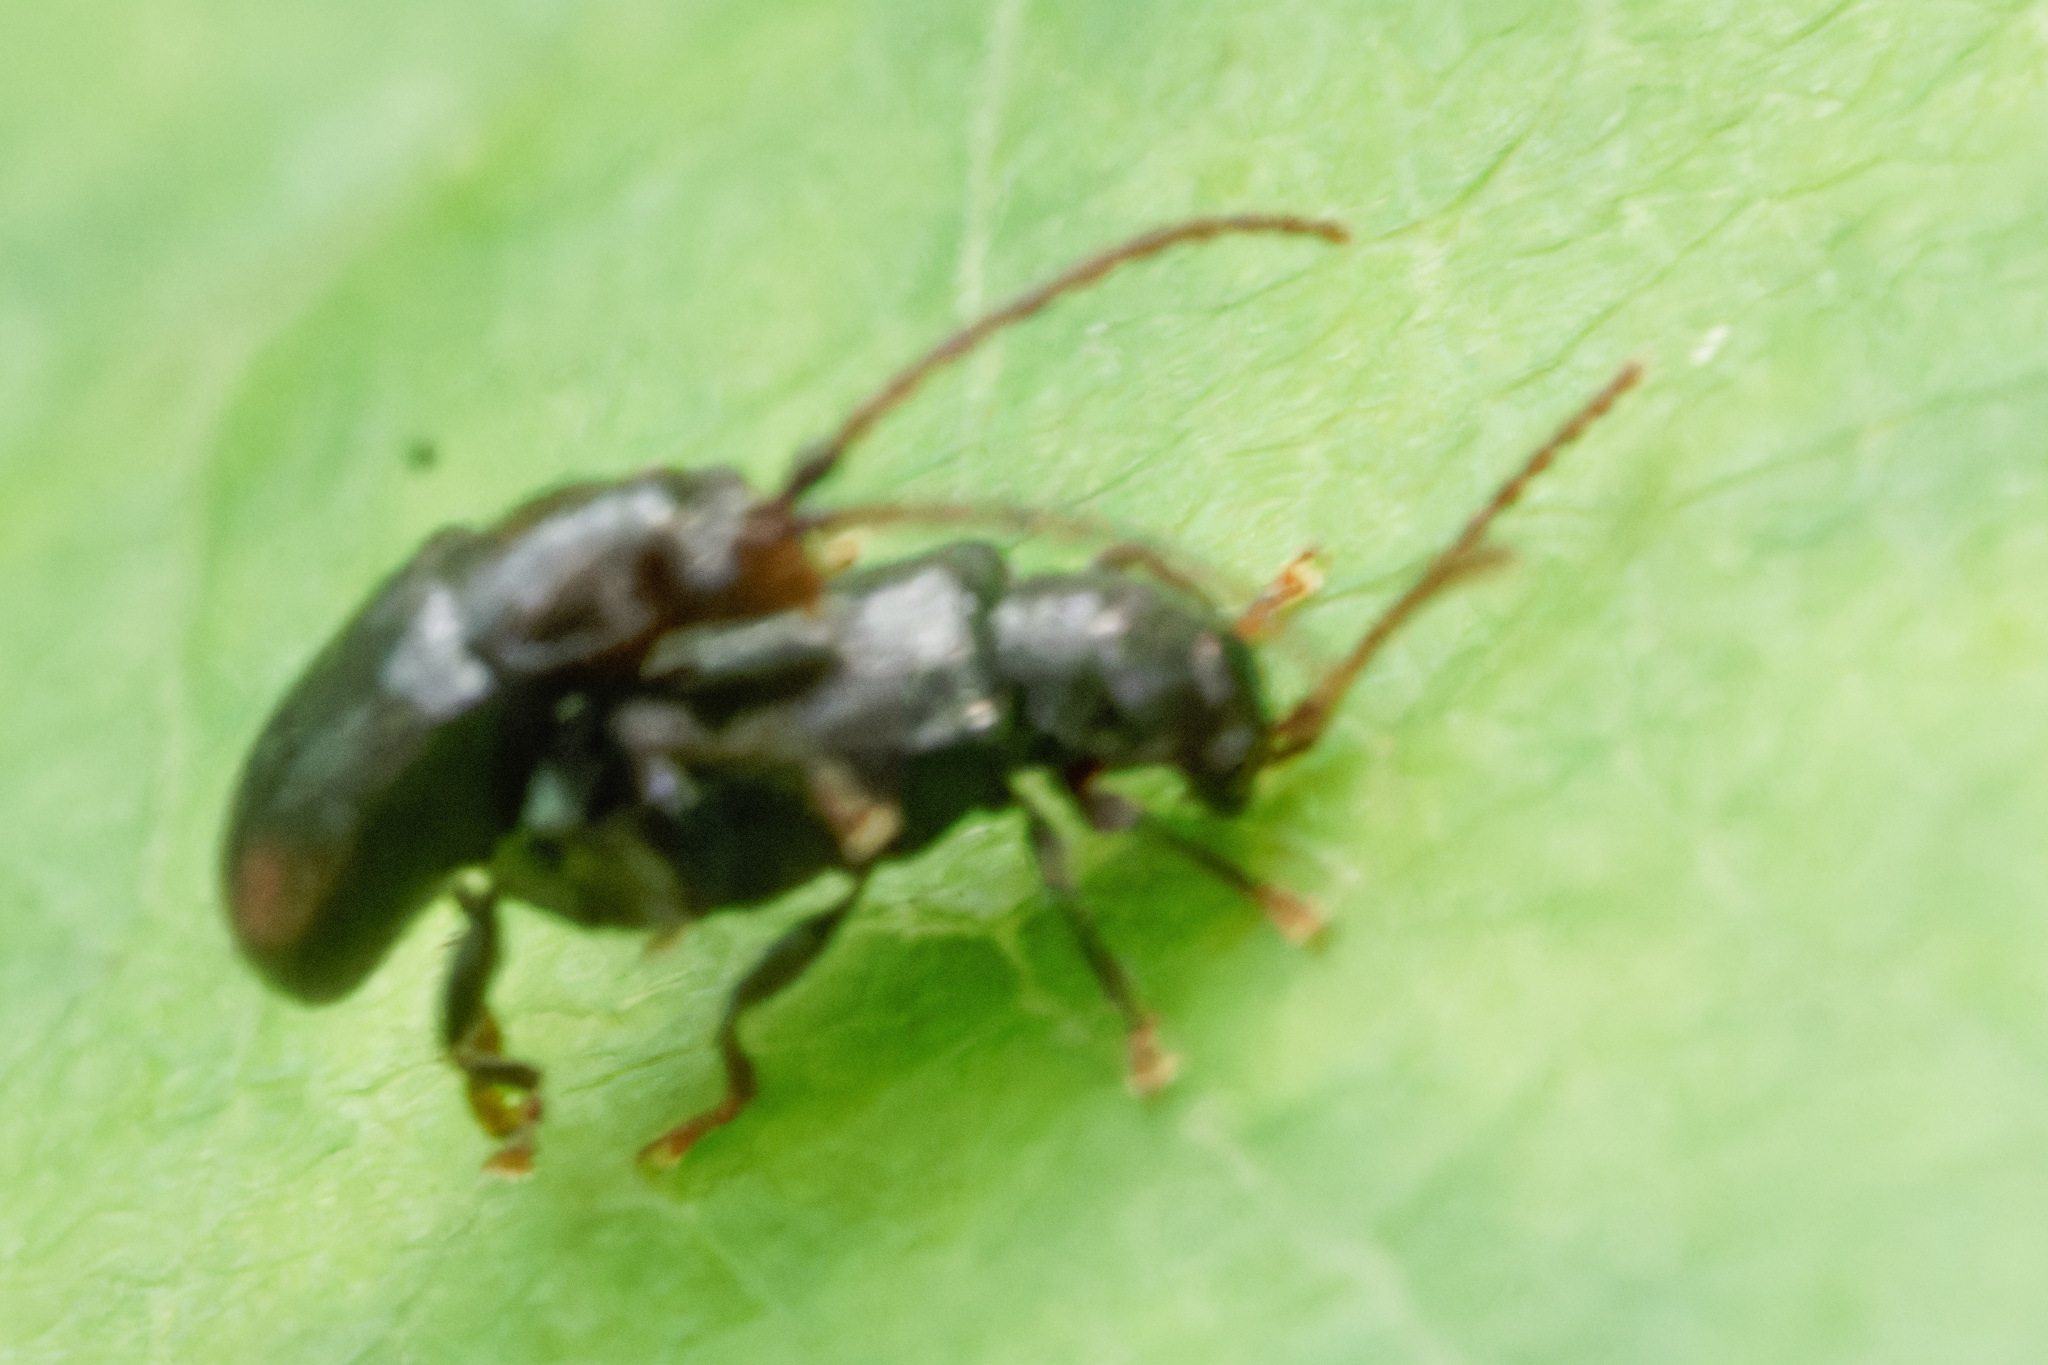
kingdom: Animalia
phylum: Arthropoda
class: Insecta
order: Coleoptera
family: Chrysomelidae
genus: Aulacothorax
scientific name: Aulacothorax
